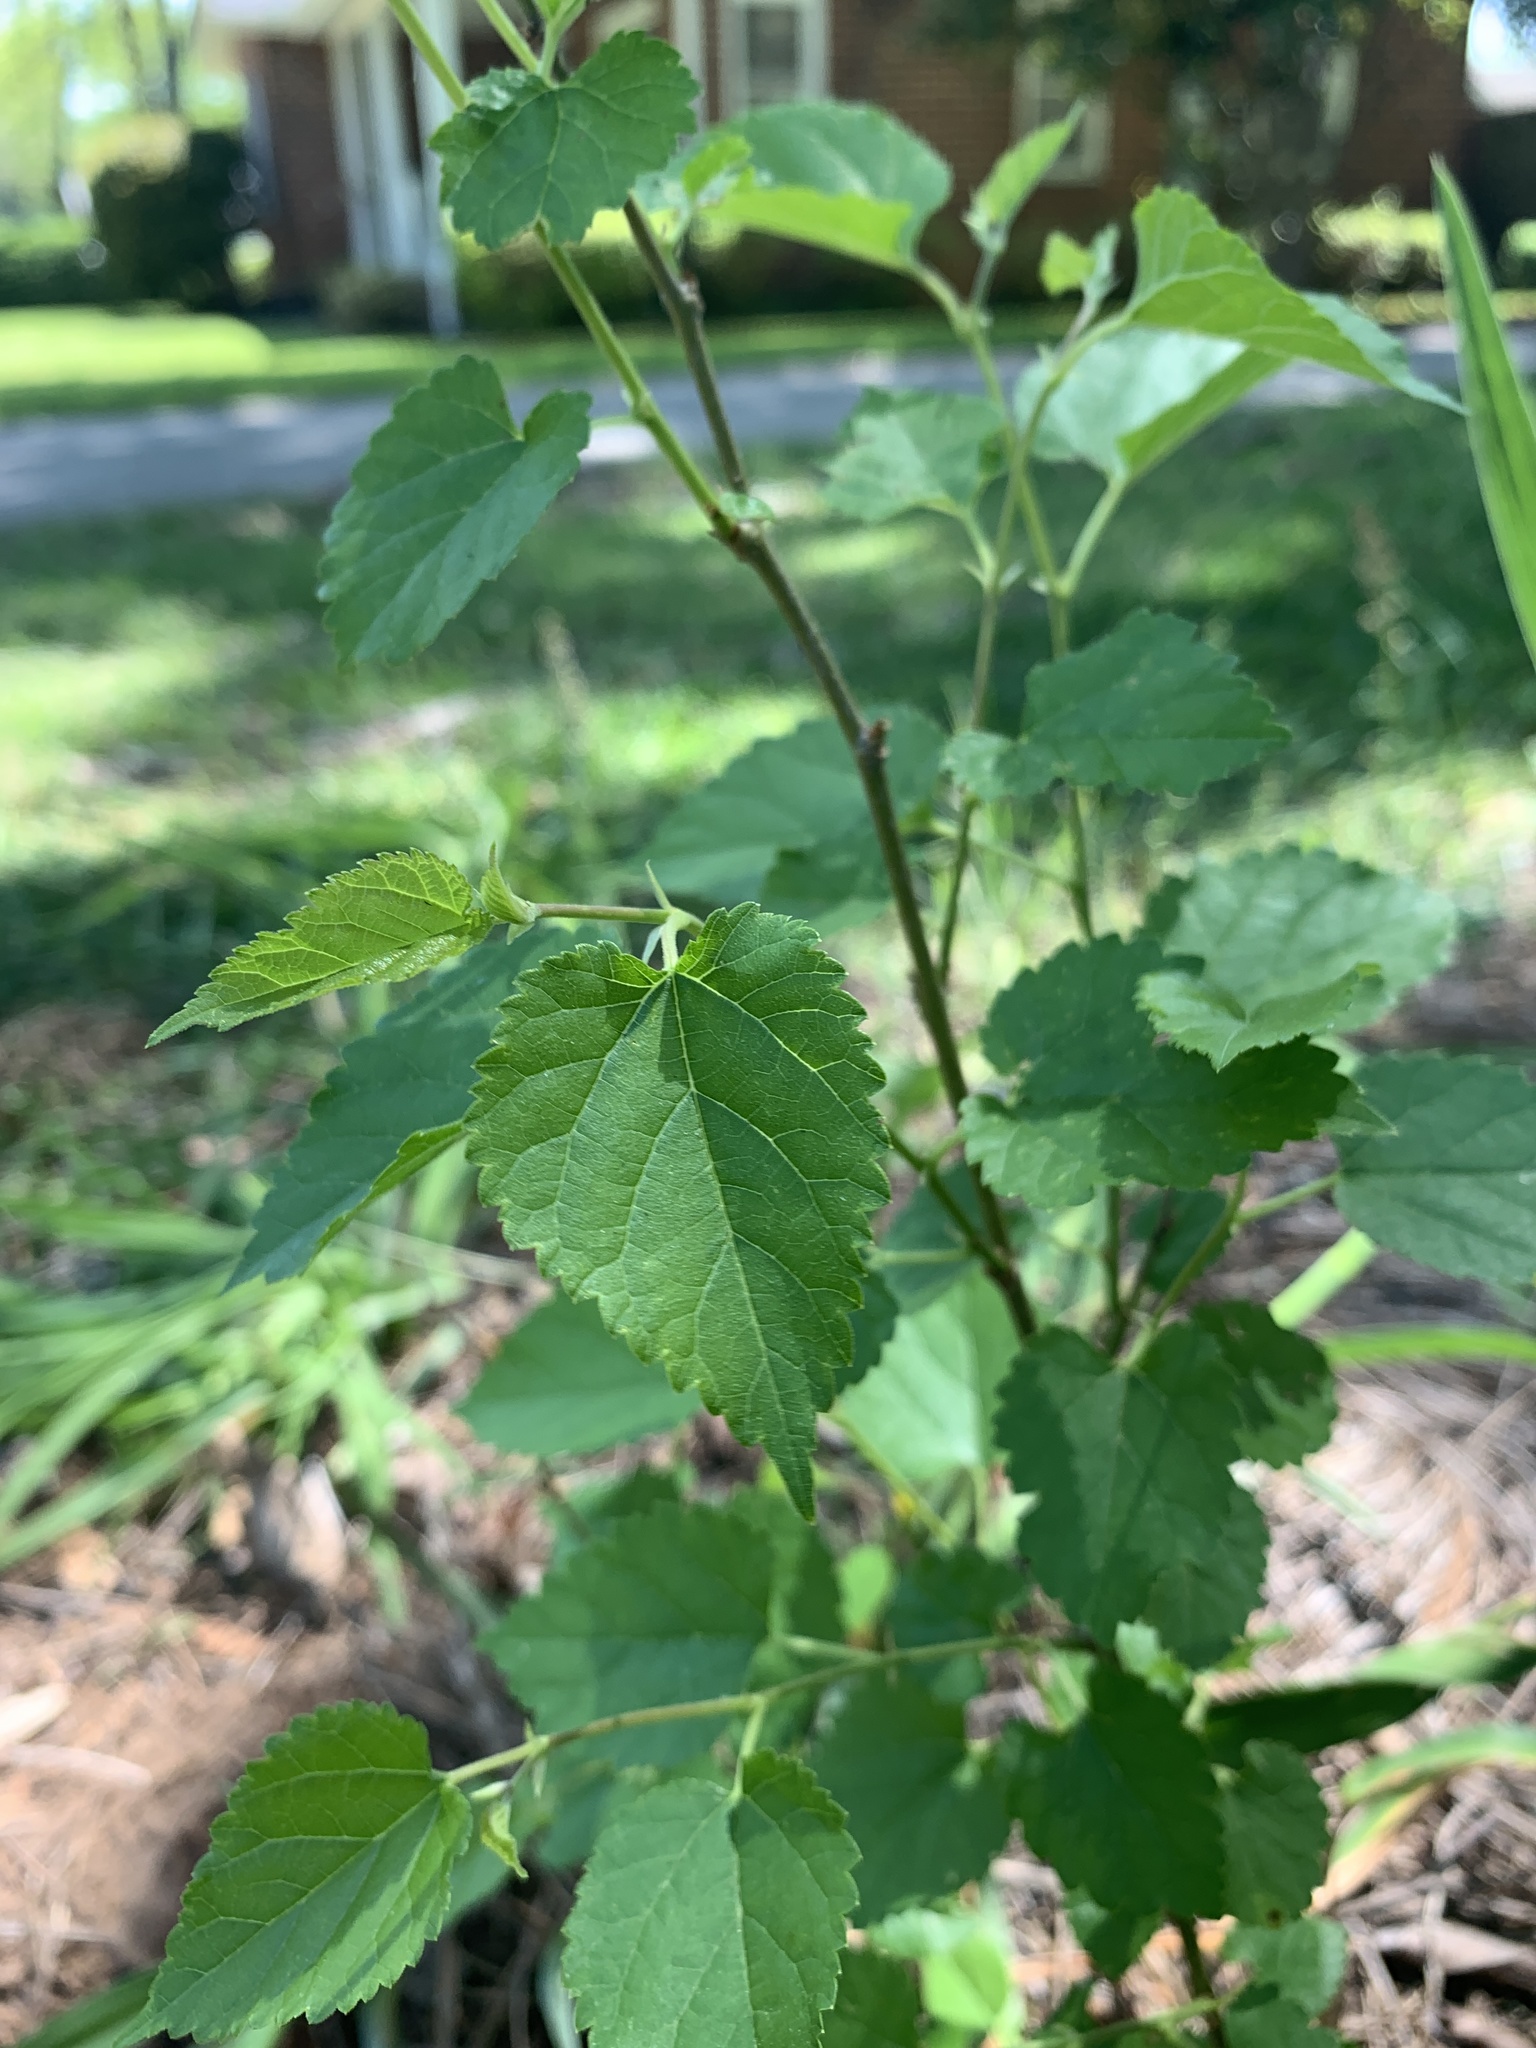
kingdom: Plantae
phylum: Tracheophyta
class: Magnoliopsida
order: Rosales
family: Moraceae
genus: Morus
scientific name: Morus alba
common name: White mulberry
